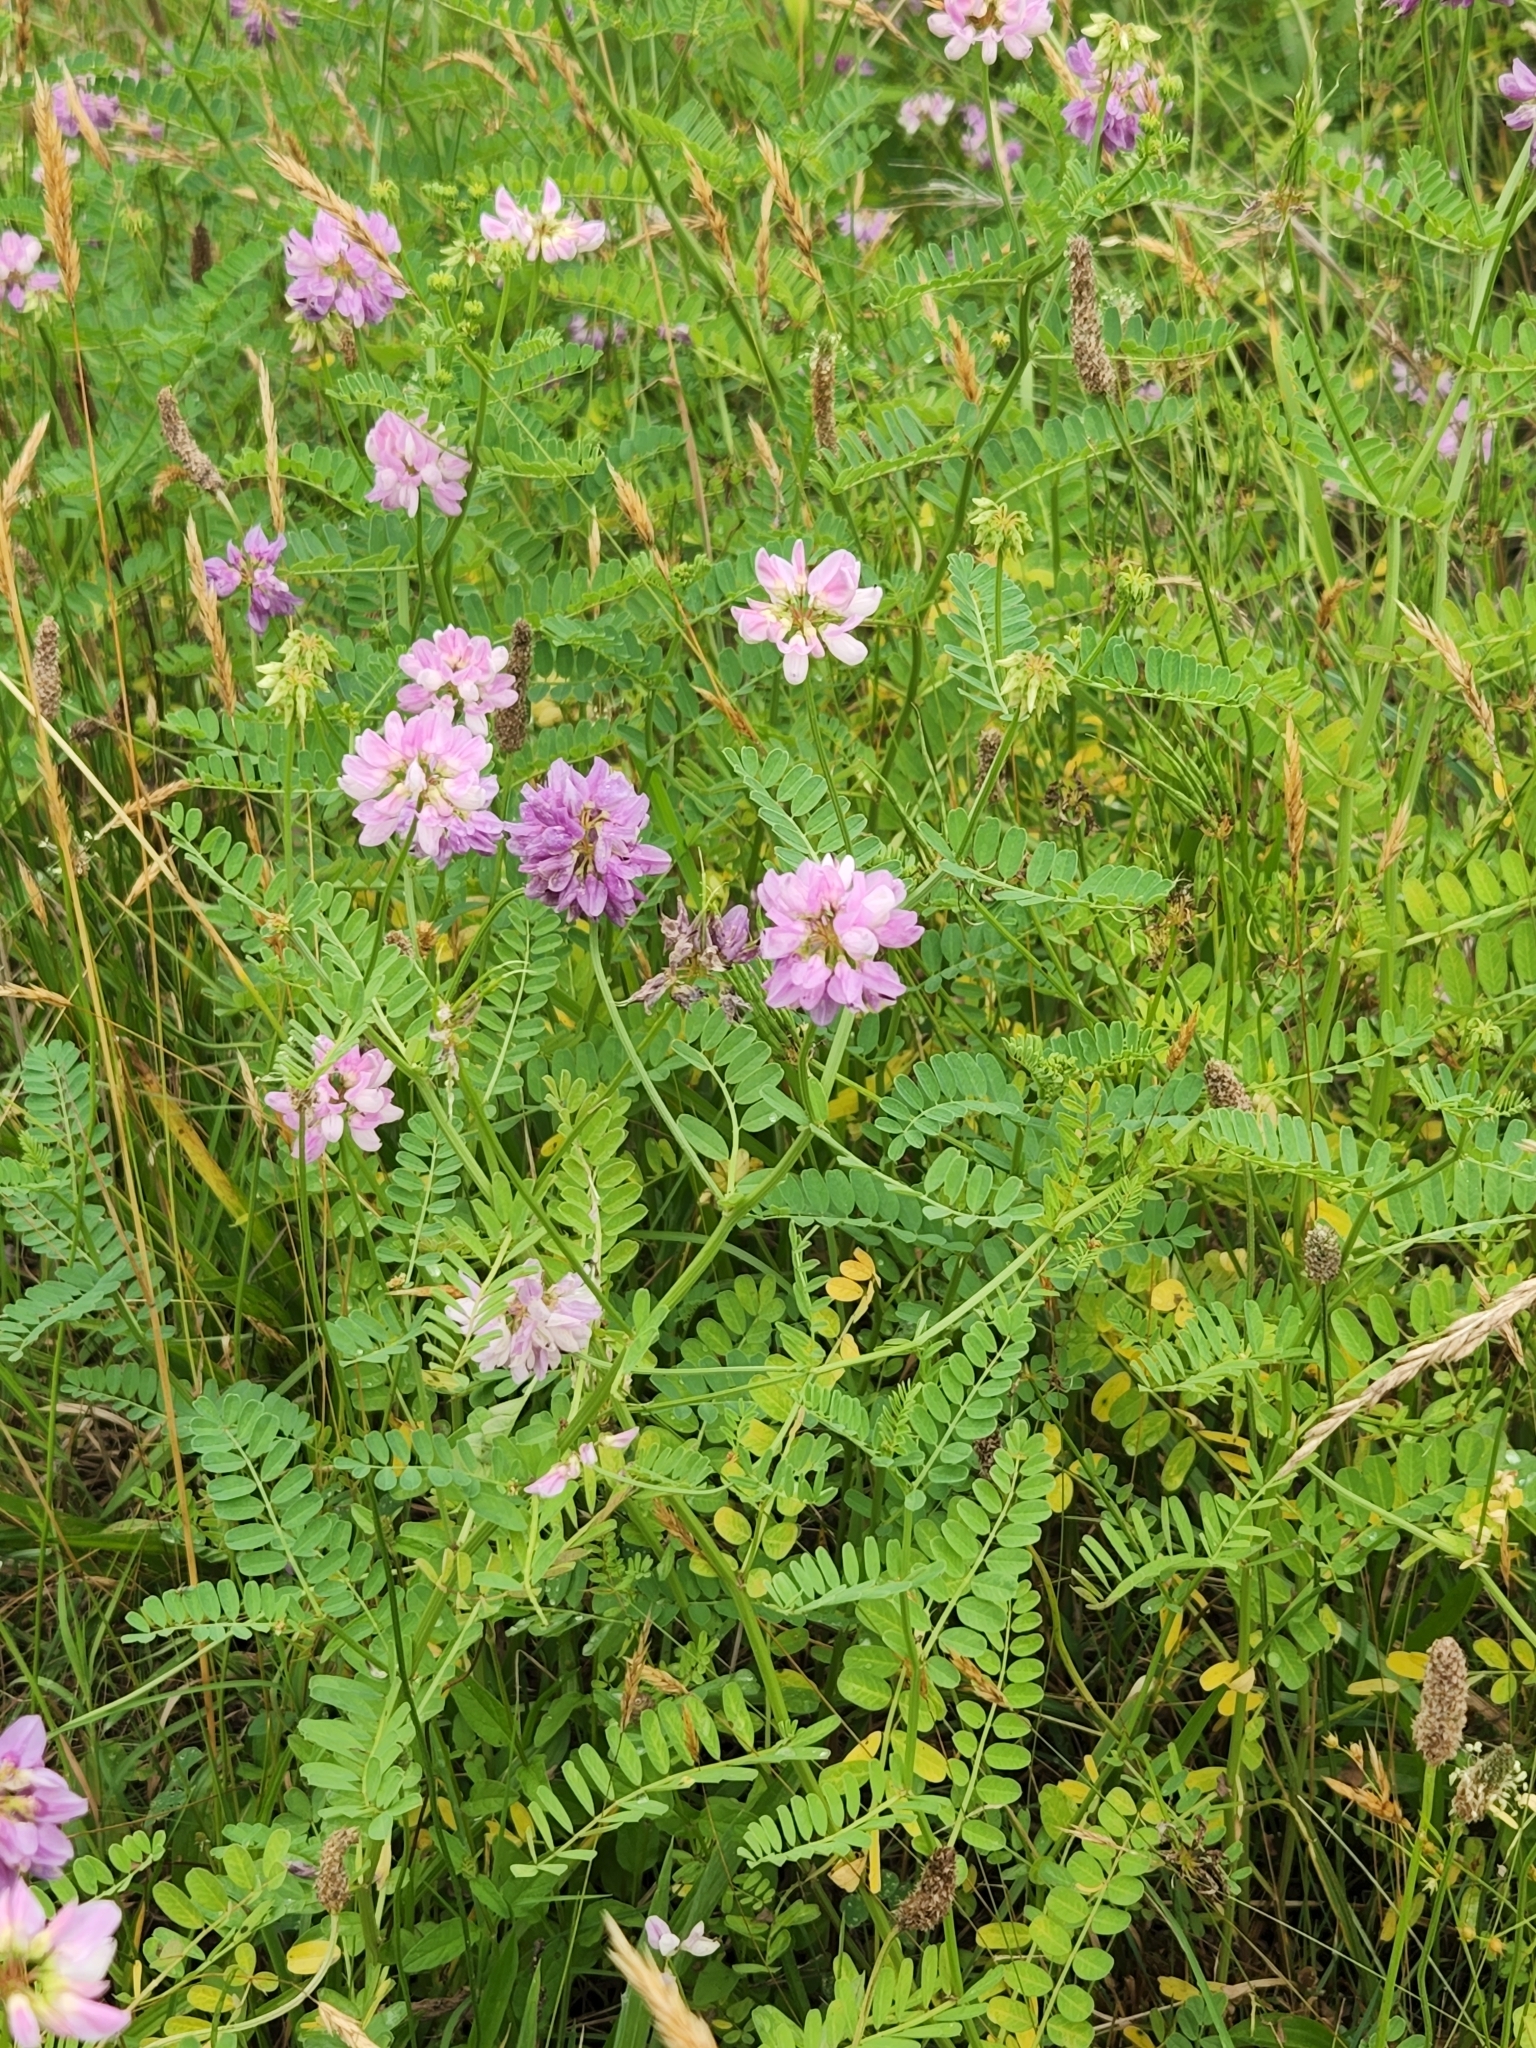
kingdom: Plantae
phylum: Tracheophyta
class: Magnoliopsida
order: Fabales
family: Fabaceae
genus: Coronilla
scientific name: Coronilla varia
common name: Crownvetch
